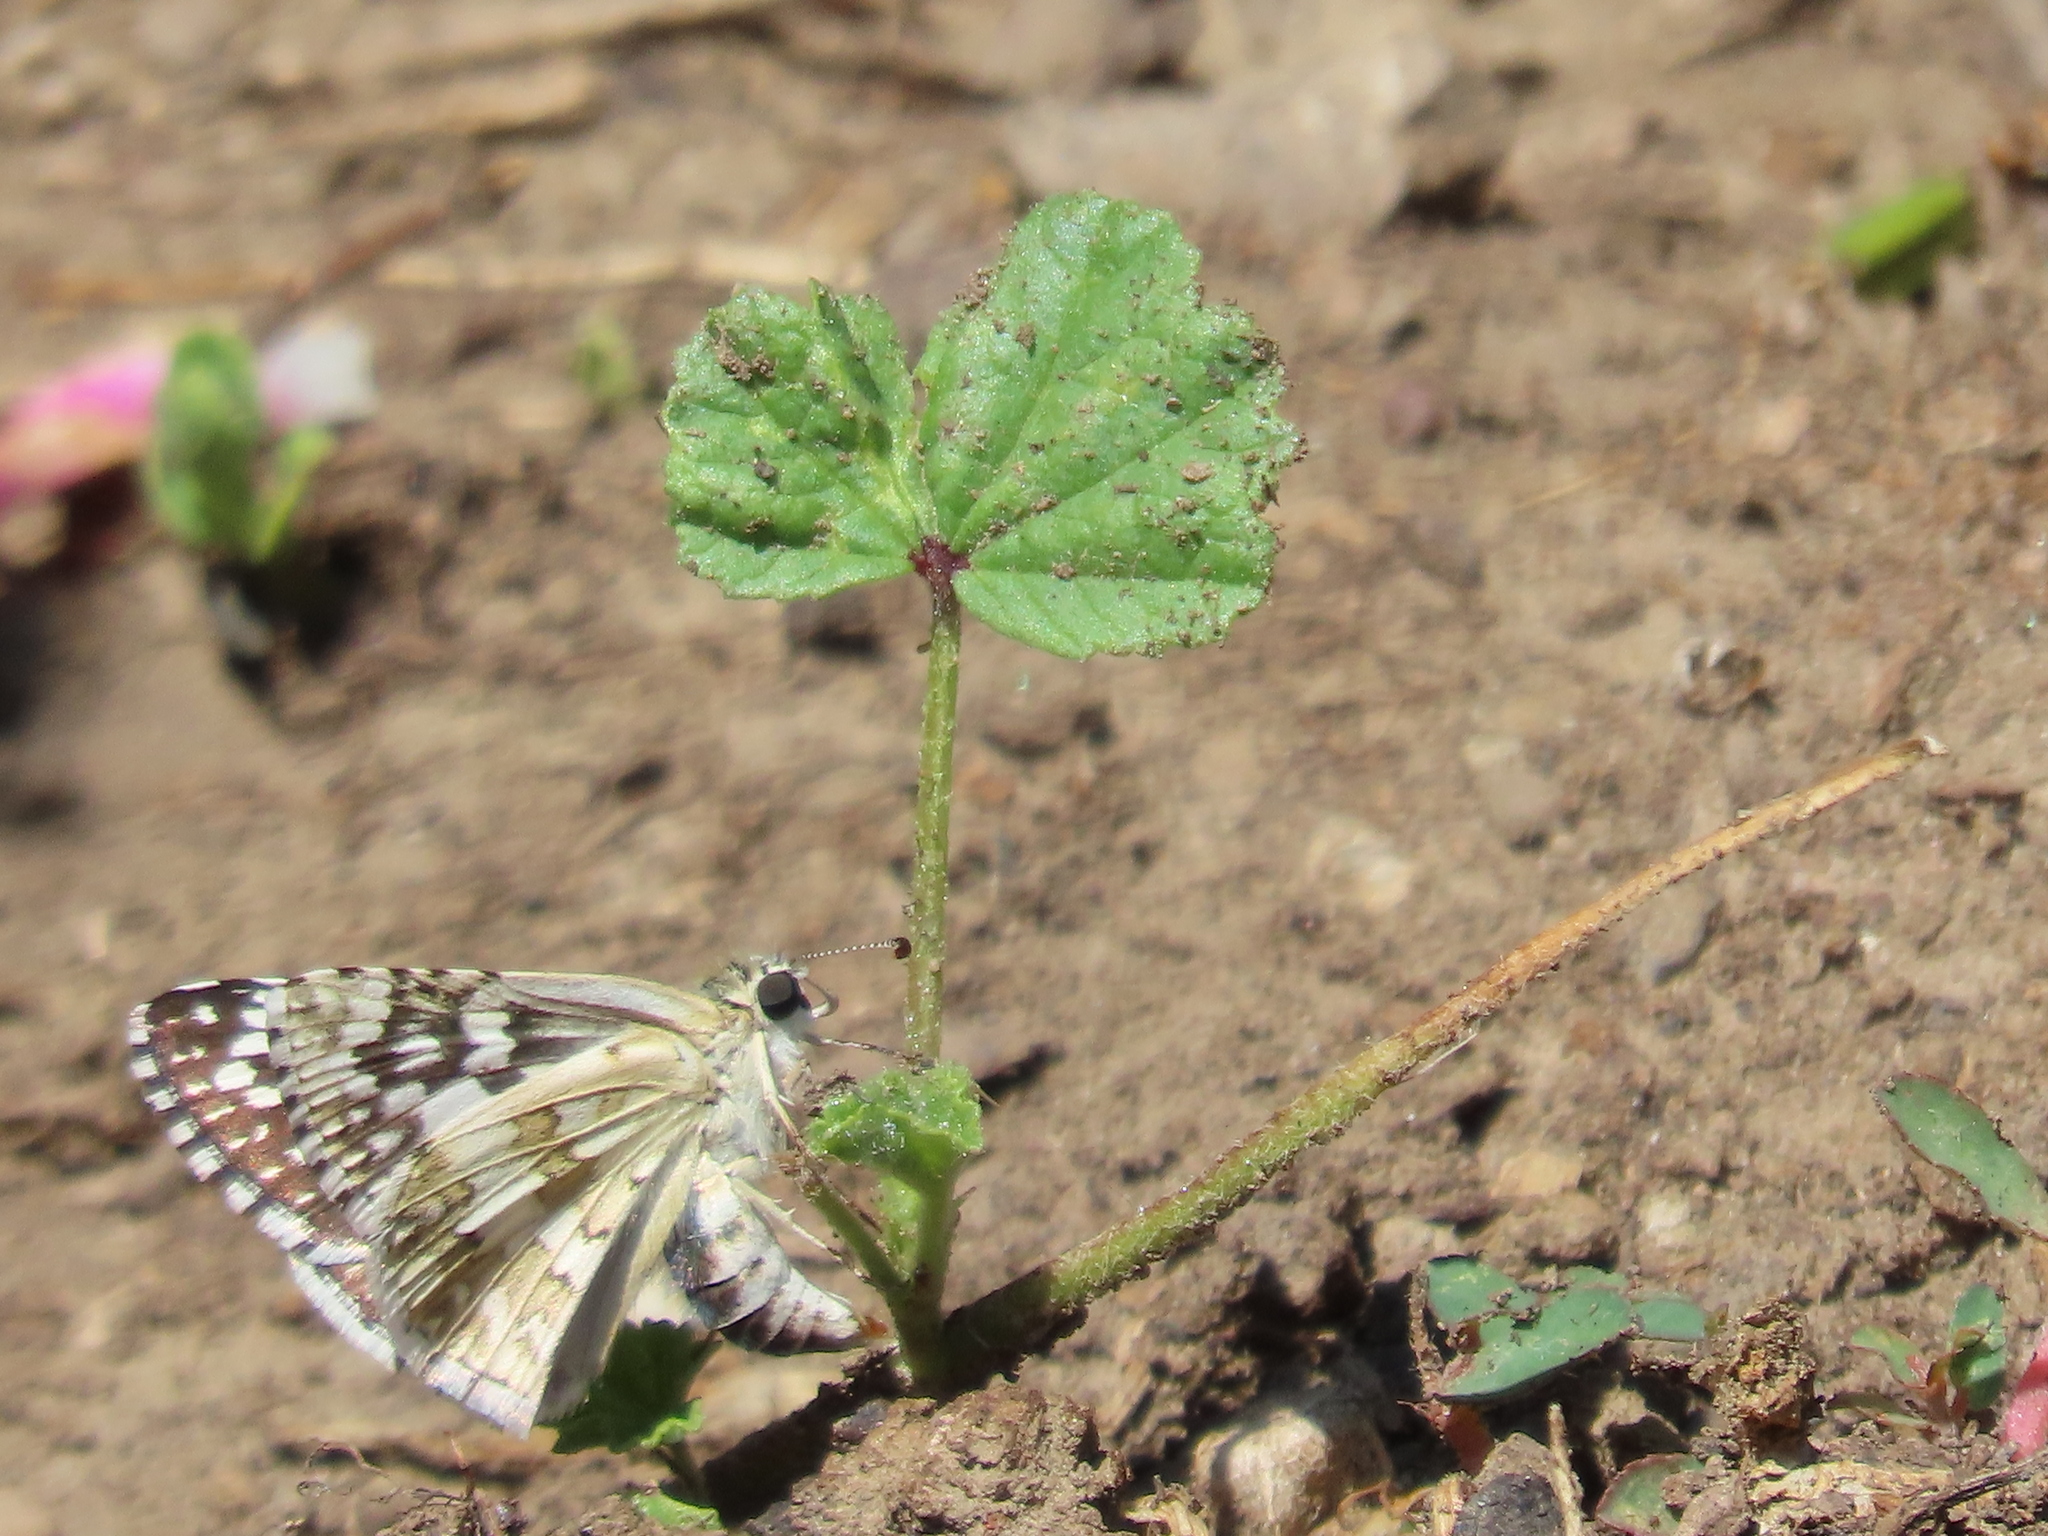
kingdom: Animalia
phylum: Arthropoda
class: Insecta
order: Lepidoptera
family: Hesperiidae
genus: Burnsius
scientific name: Burnsius communis
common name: Common checkered-skipper
